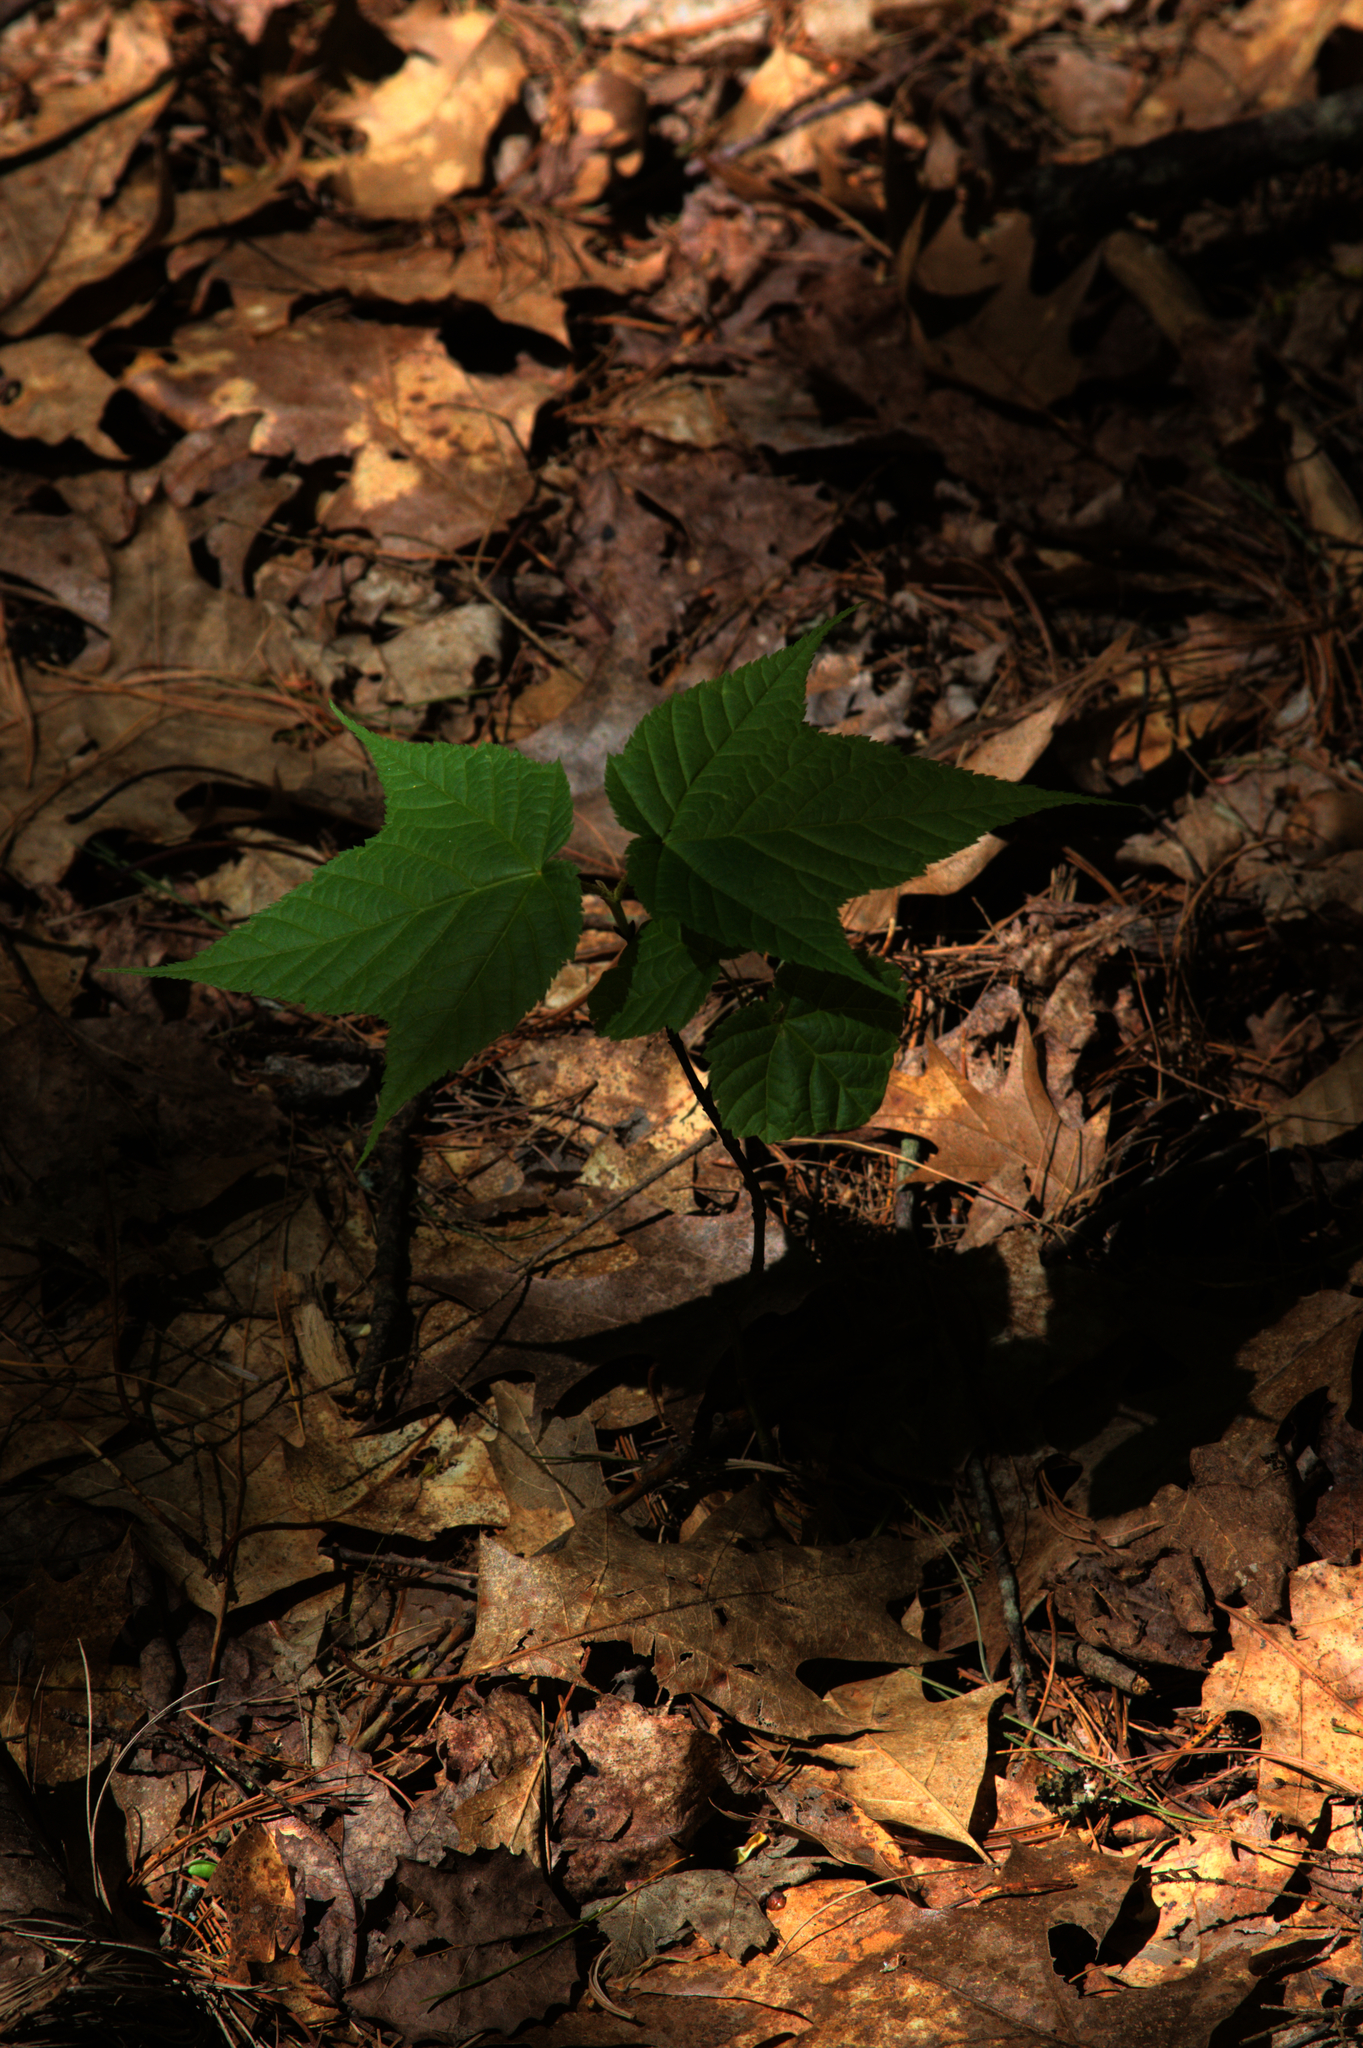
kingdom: Plantae
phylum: Tracheophyta
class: Magnoliopsida
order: Sapindales
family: Sapindaceae
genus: Acer
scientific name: Acer pensylvanicum
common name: Moosewood
